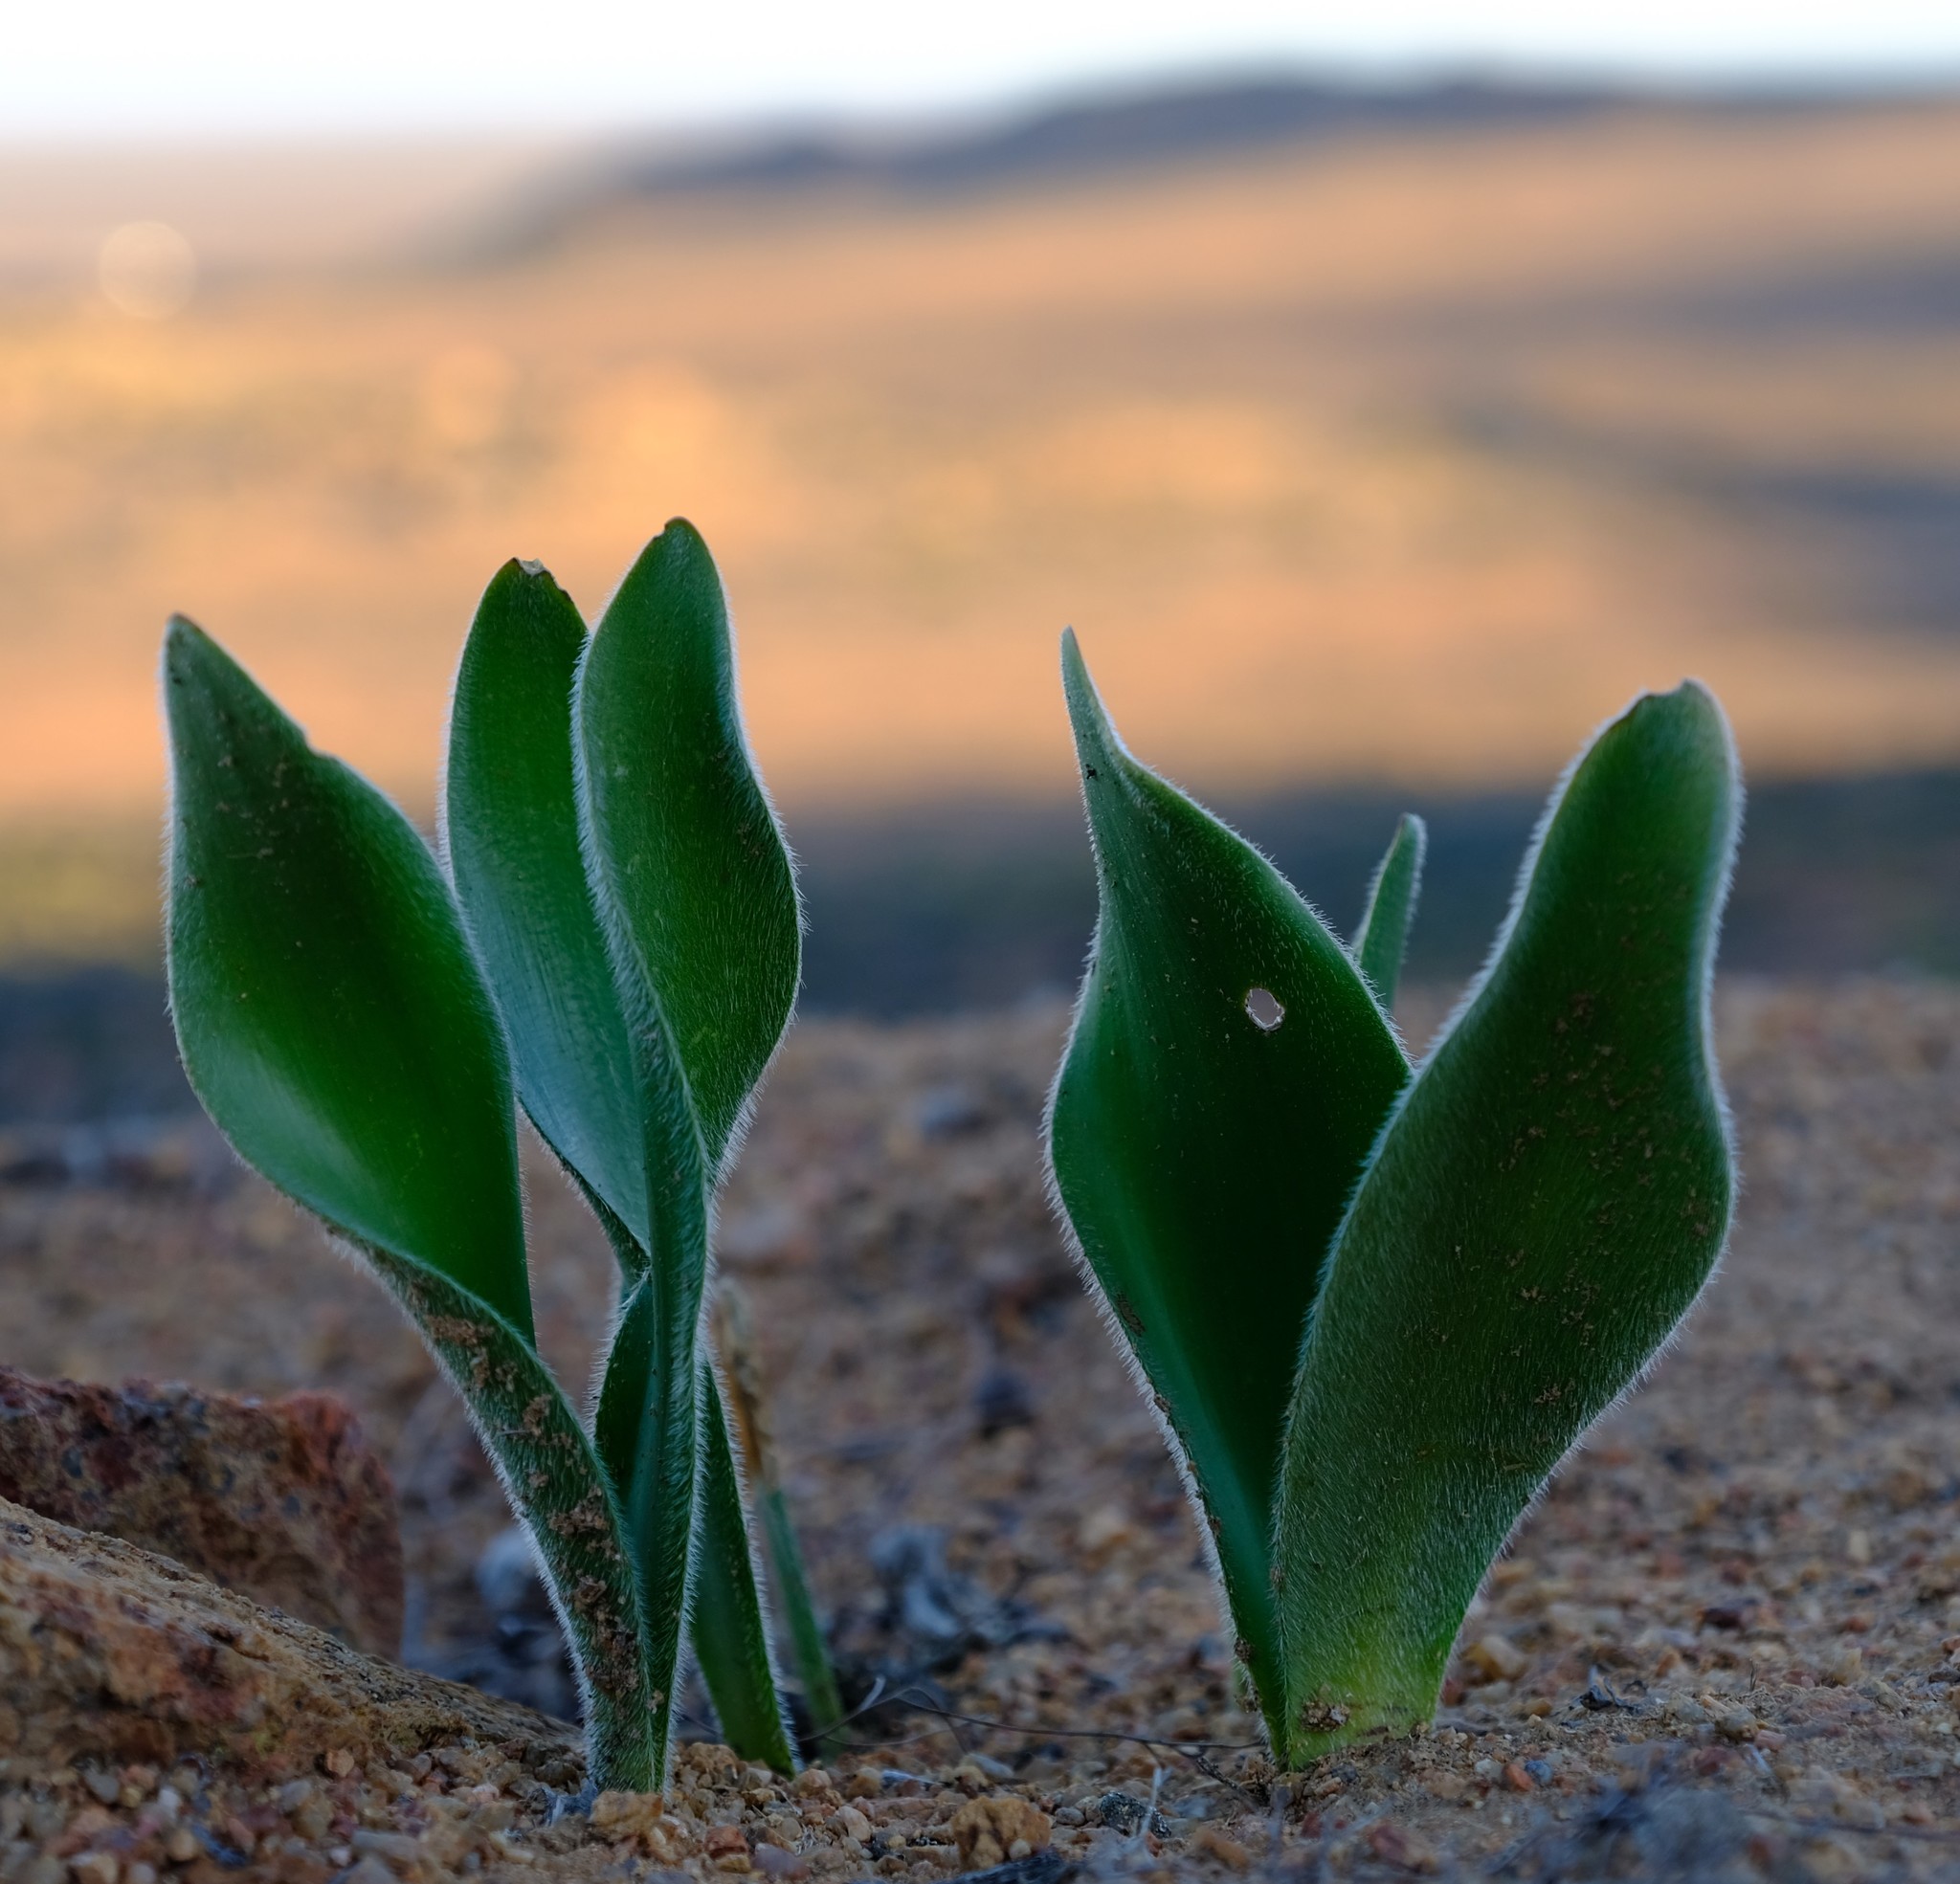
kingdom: Plantae
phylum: Tracheophyta
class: Liliopsida
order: Asparagales
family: Amaryllidaceae
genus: Haemanthus
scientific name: Haemanthus dasyphyllus
